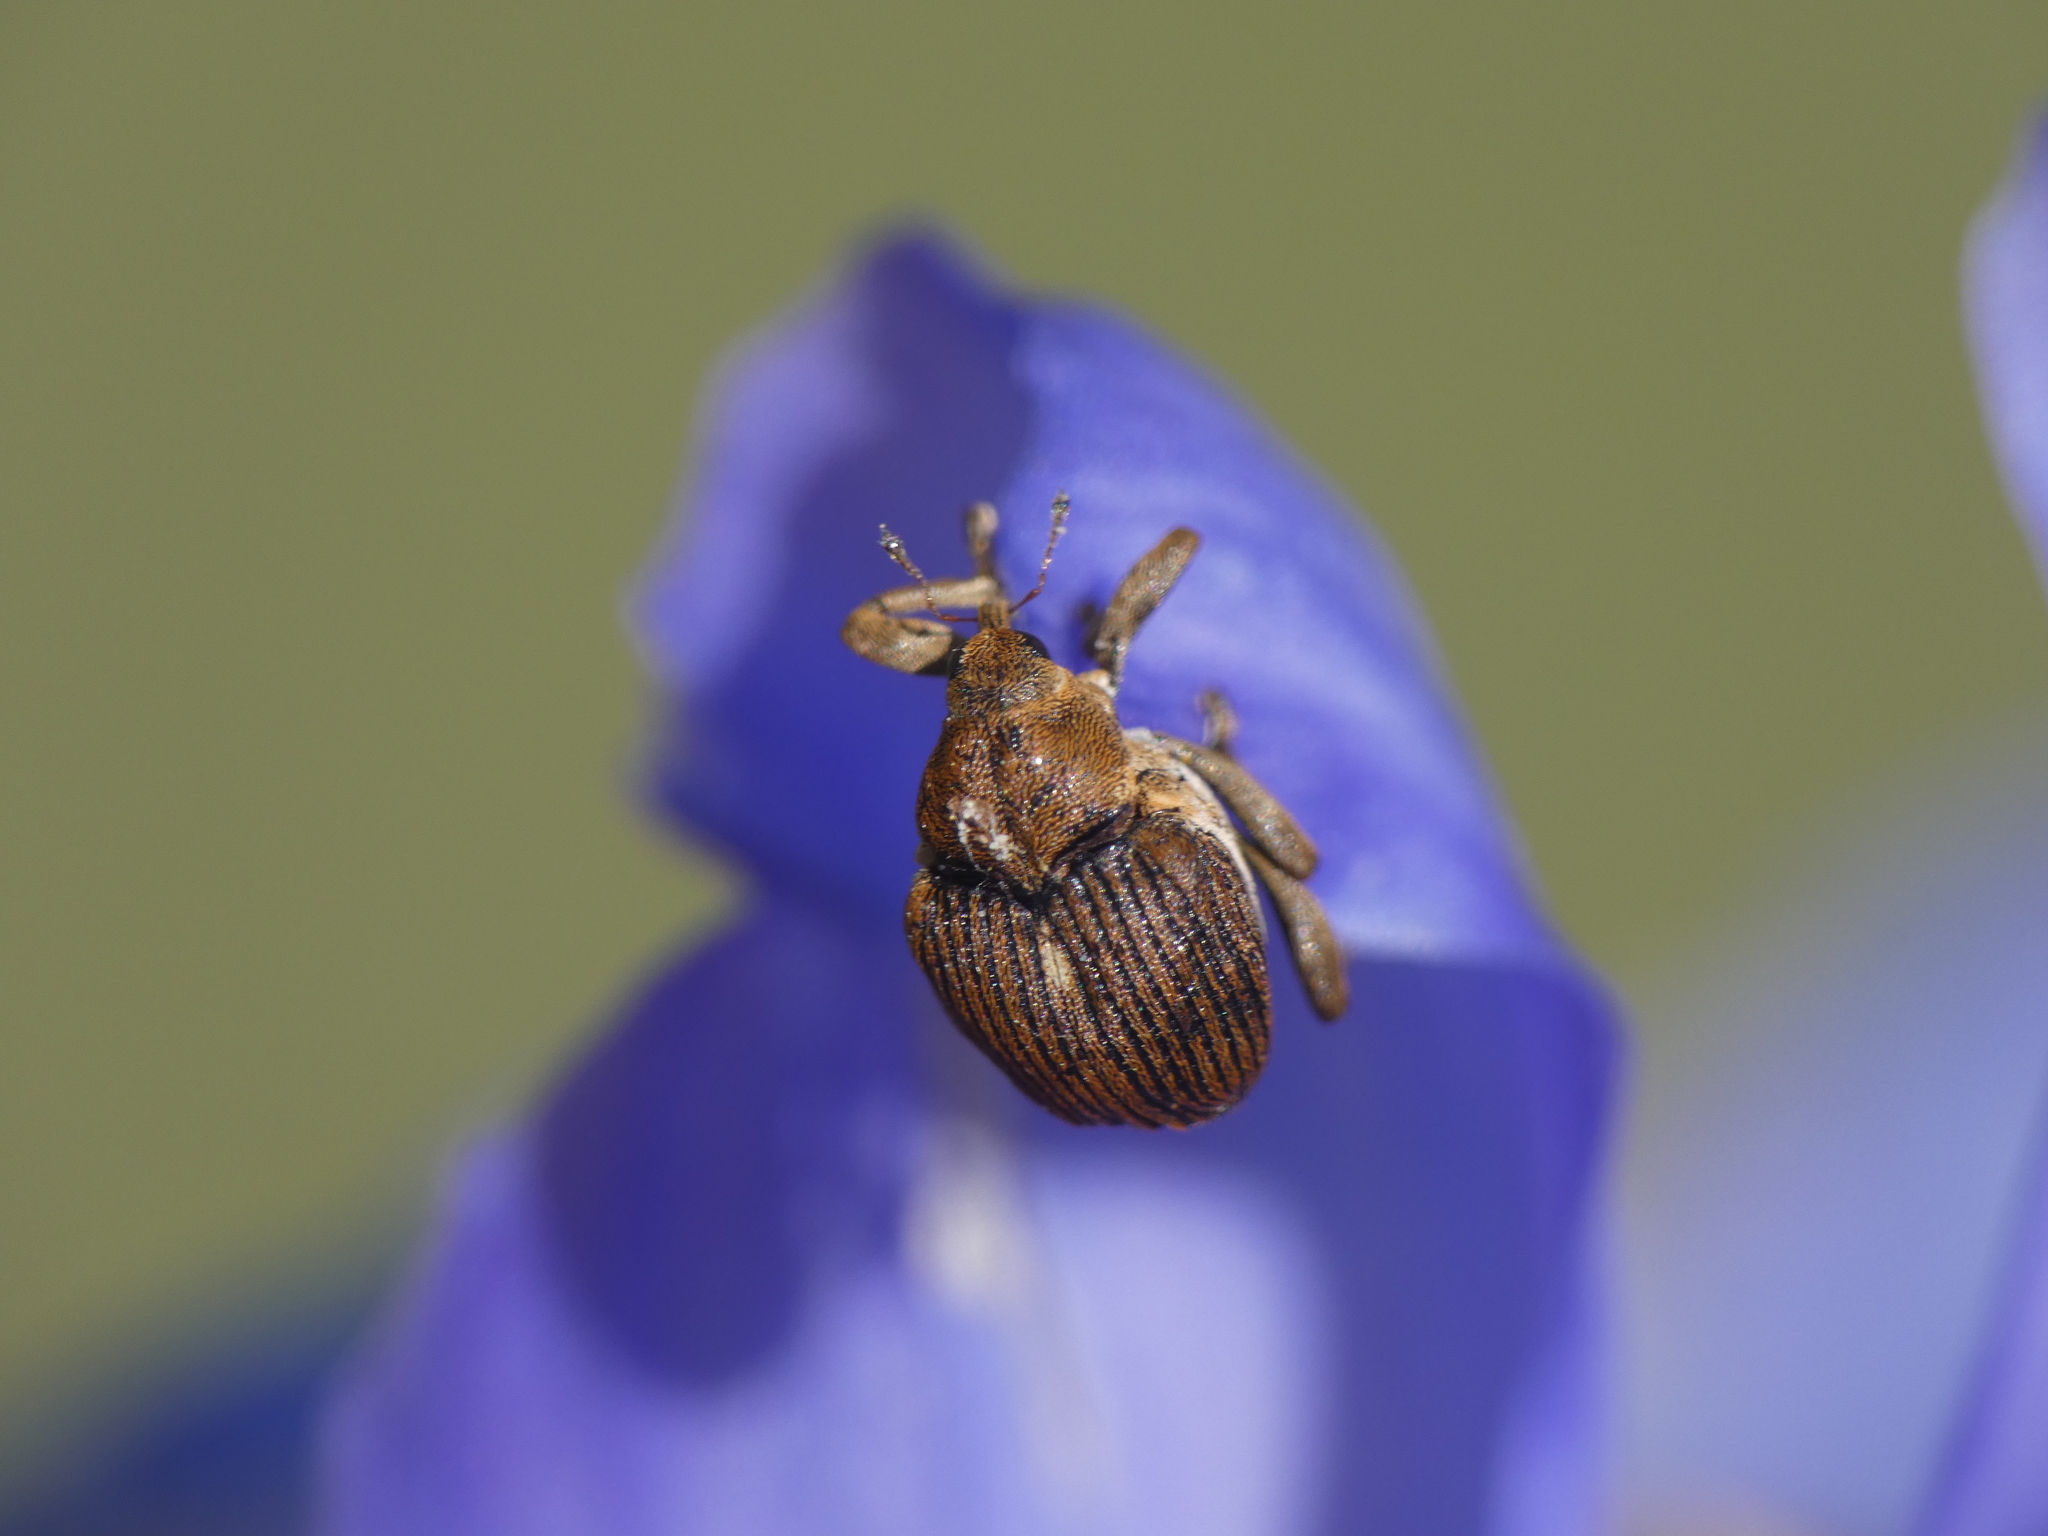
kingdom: Animalia
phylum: Arthropoda
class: Insecta
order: Coleoptera
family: Curculionidae
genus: Mononychus
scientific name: Mononychus punctumalbum
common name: Iris weevil
